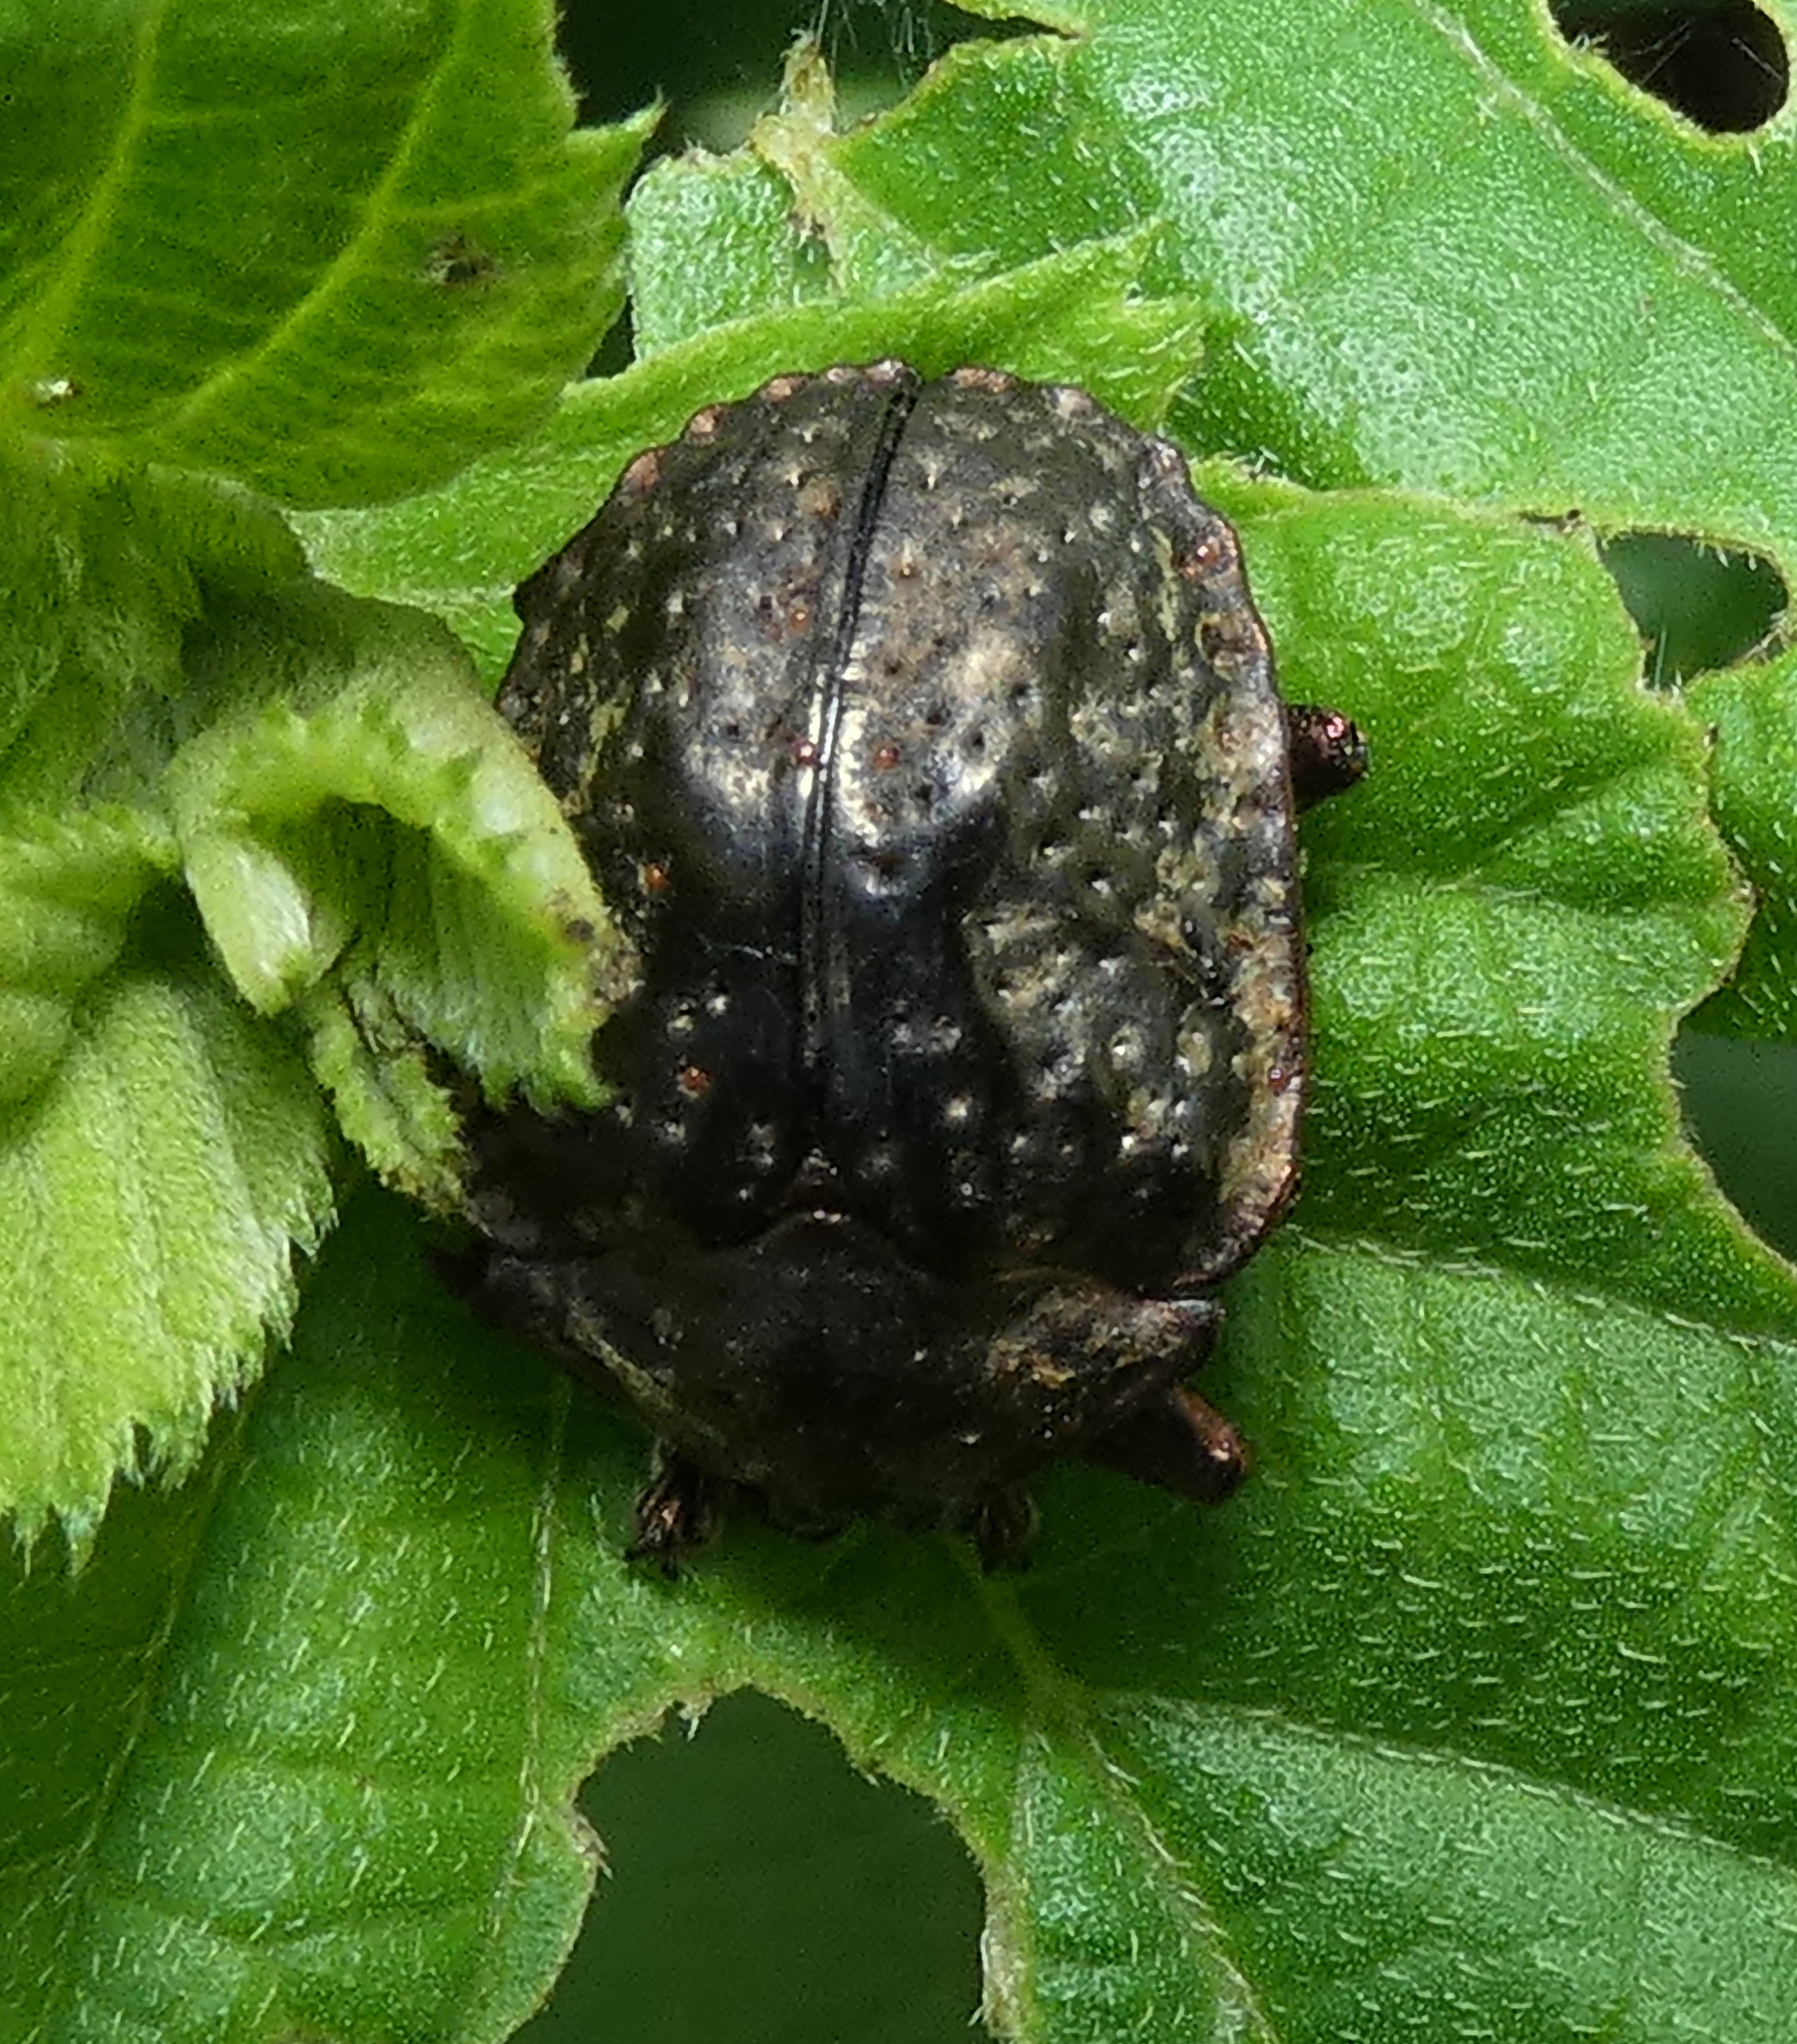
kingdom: Animalia
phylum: Arthropoda
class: Insecta
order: Coleoptera
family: Chrysomelidae
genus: Polychalca
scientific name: Polychalca aerea
